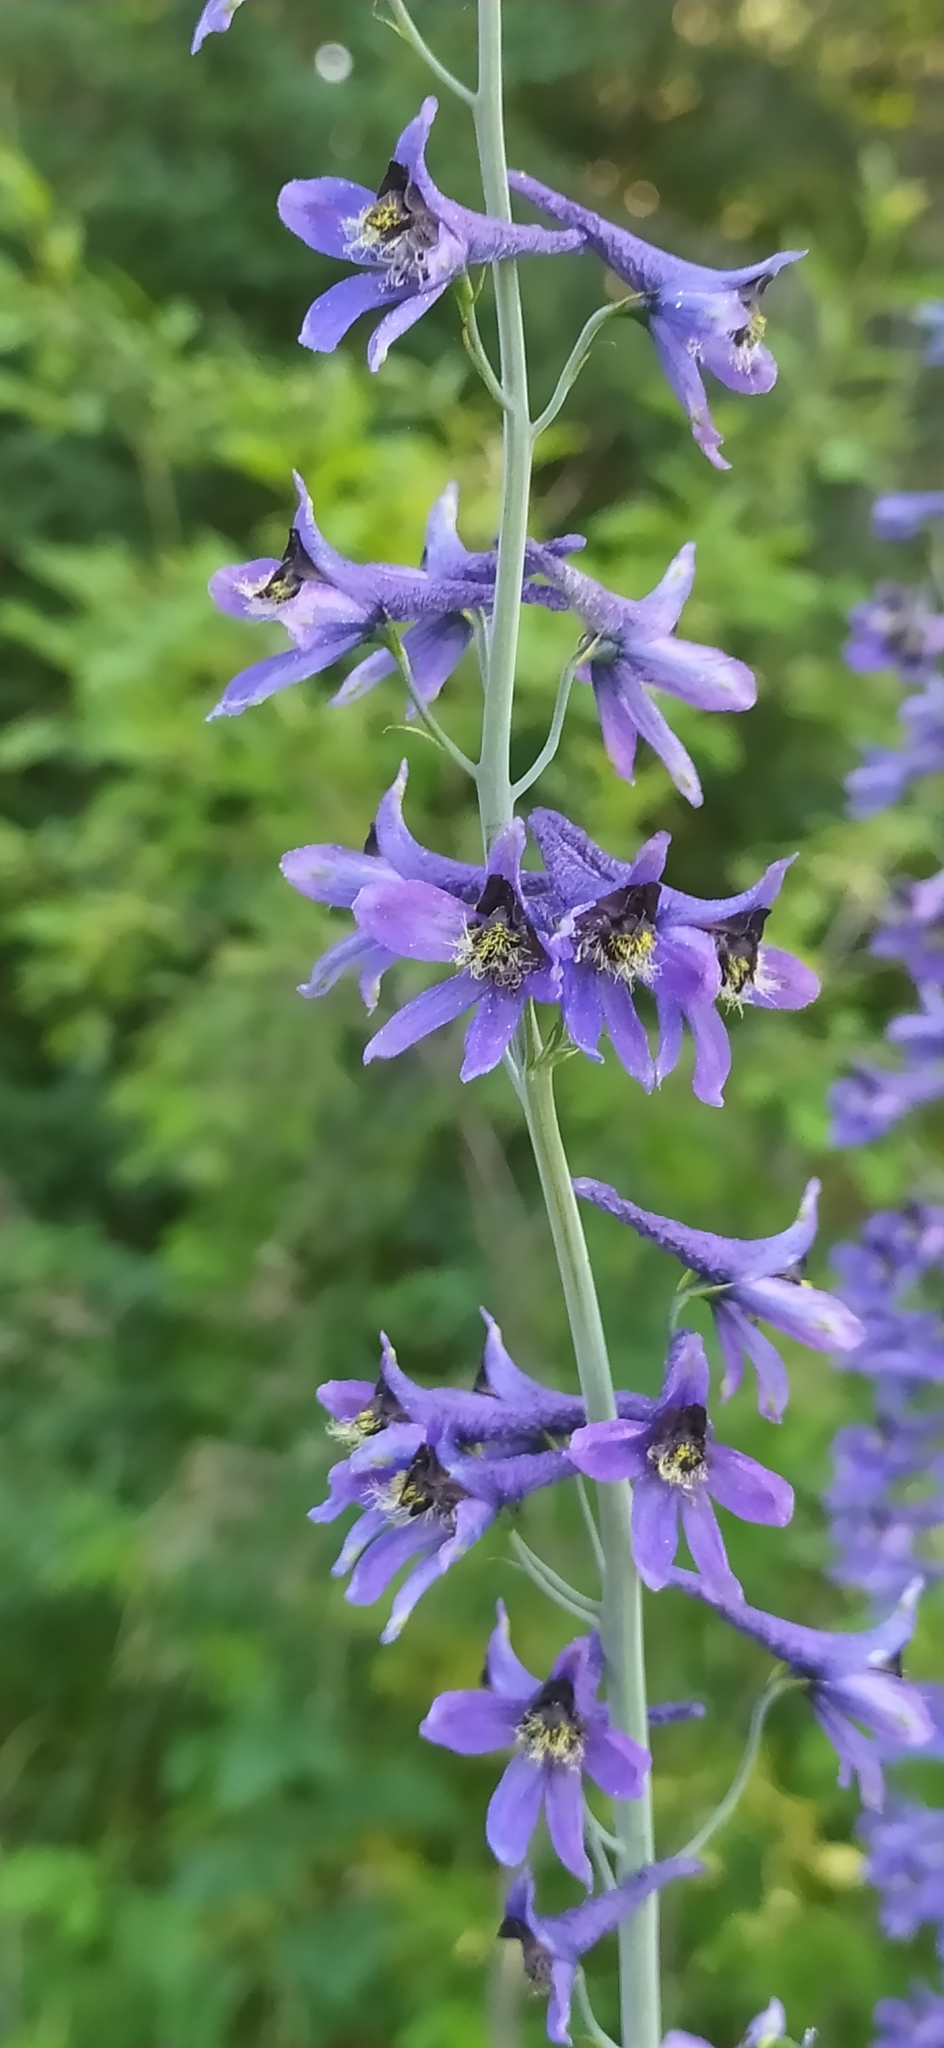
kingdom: Plantae
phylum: Tracheophyta
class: Magnoliopsida
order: Ranunculales
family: Ranunculaceae
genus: Delphinium
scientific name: Delphinium elatum
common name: Candle larkspur
